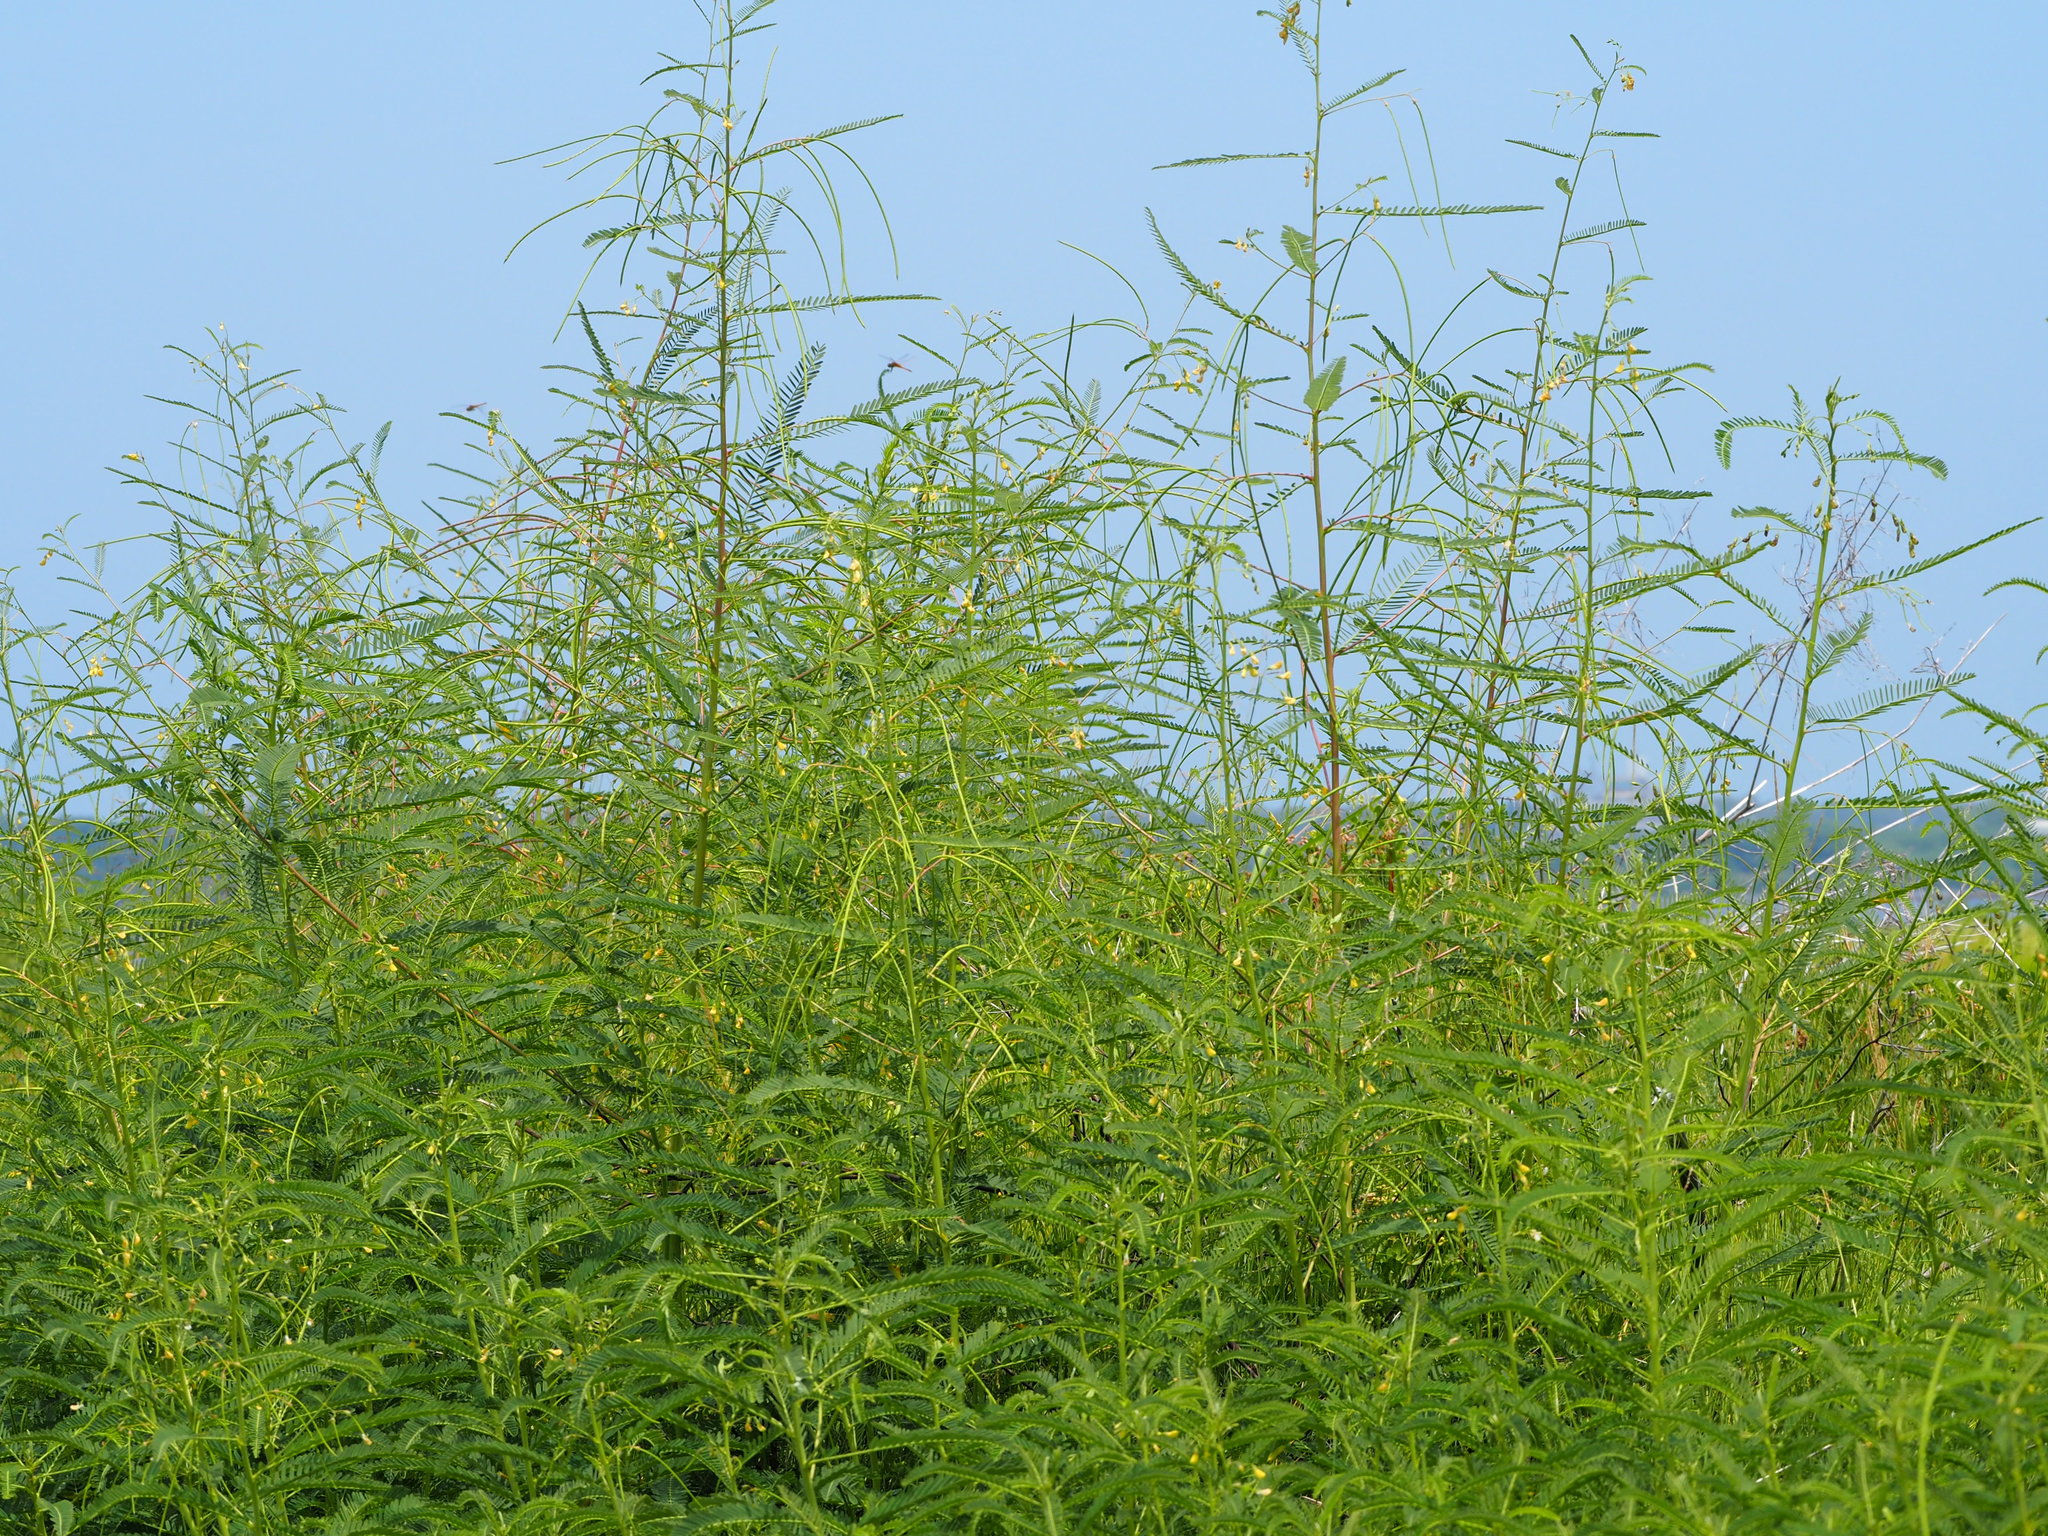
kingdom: Plantae
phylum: Tracheophyta
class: Magnoliopsida
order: Fabales
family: Fabaceae
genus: Sesbania
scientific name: Sesbania cannabina
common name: Canicha
